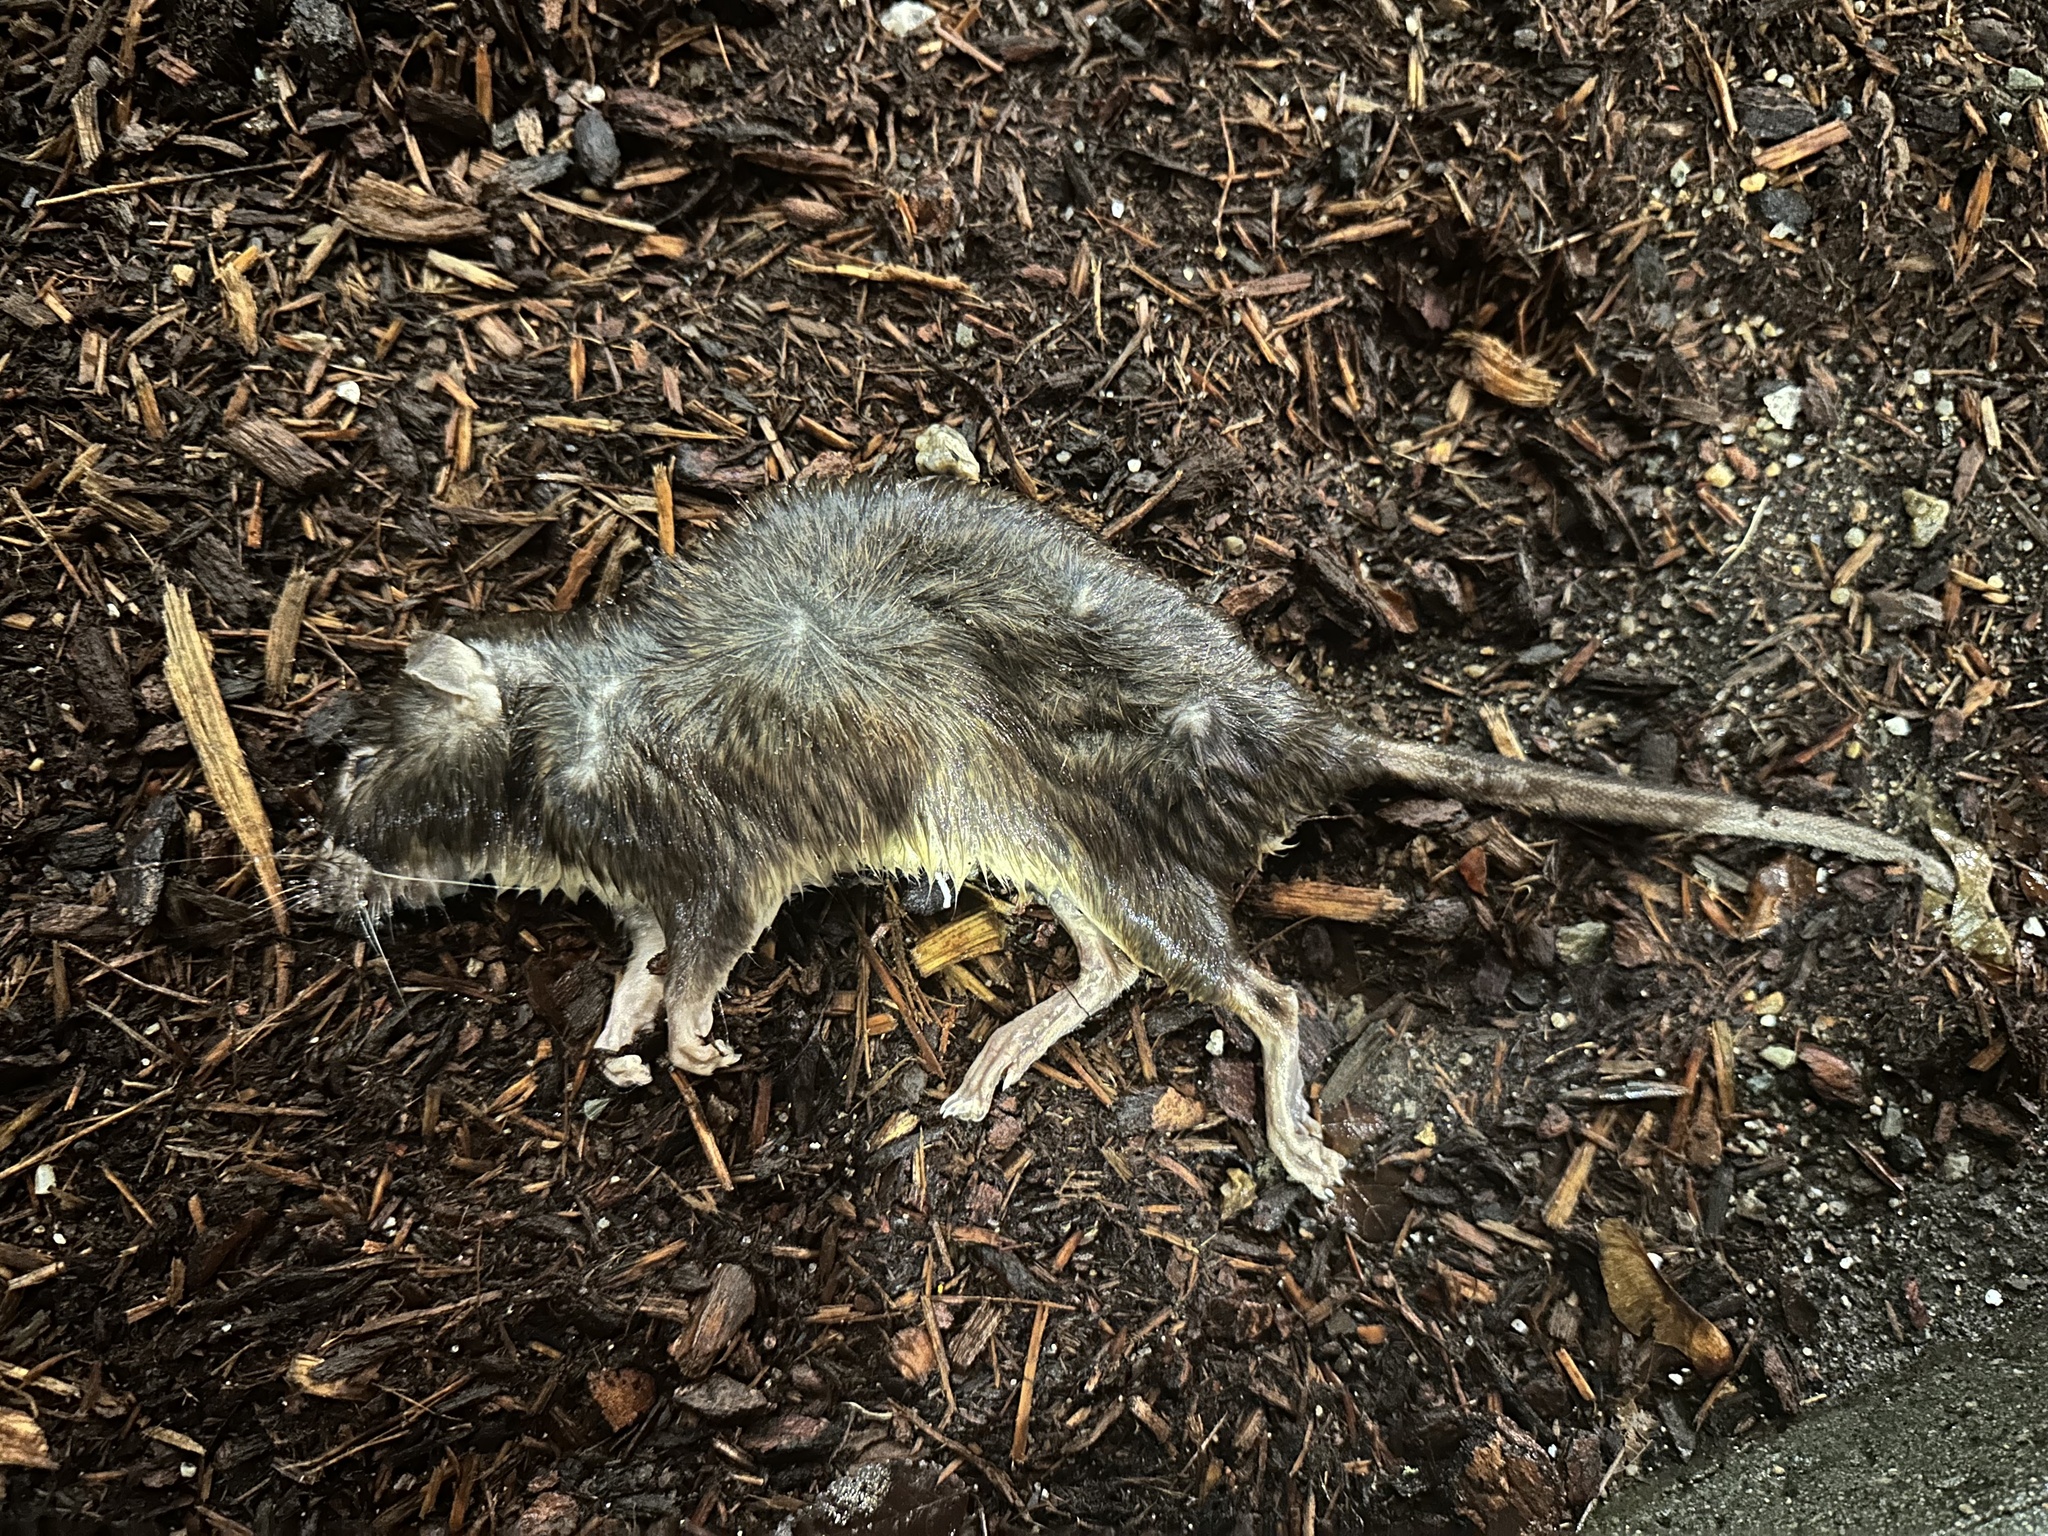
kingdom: Animalia
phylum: Chordata
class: Mammalia
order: Rodentia
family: Muridae
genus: Rattus
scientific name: Rattus norvegicus
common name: Brown rat
